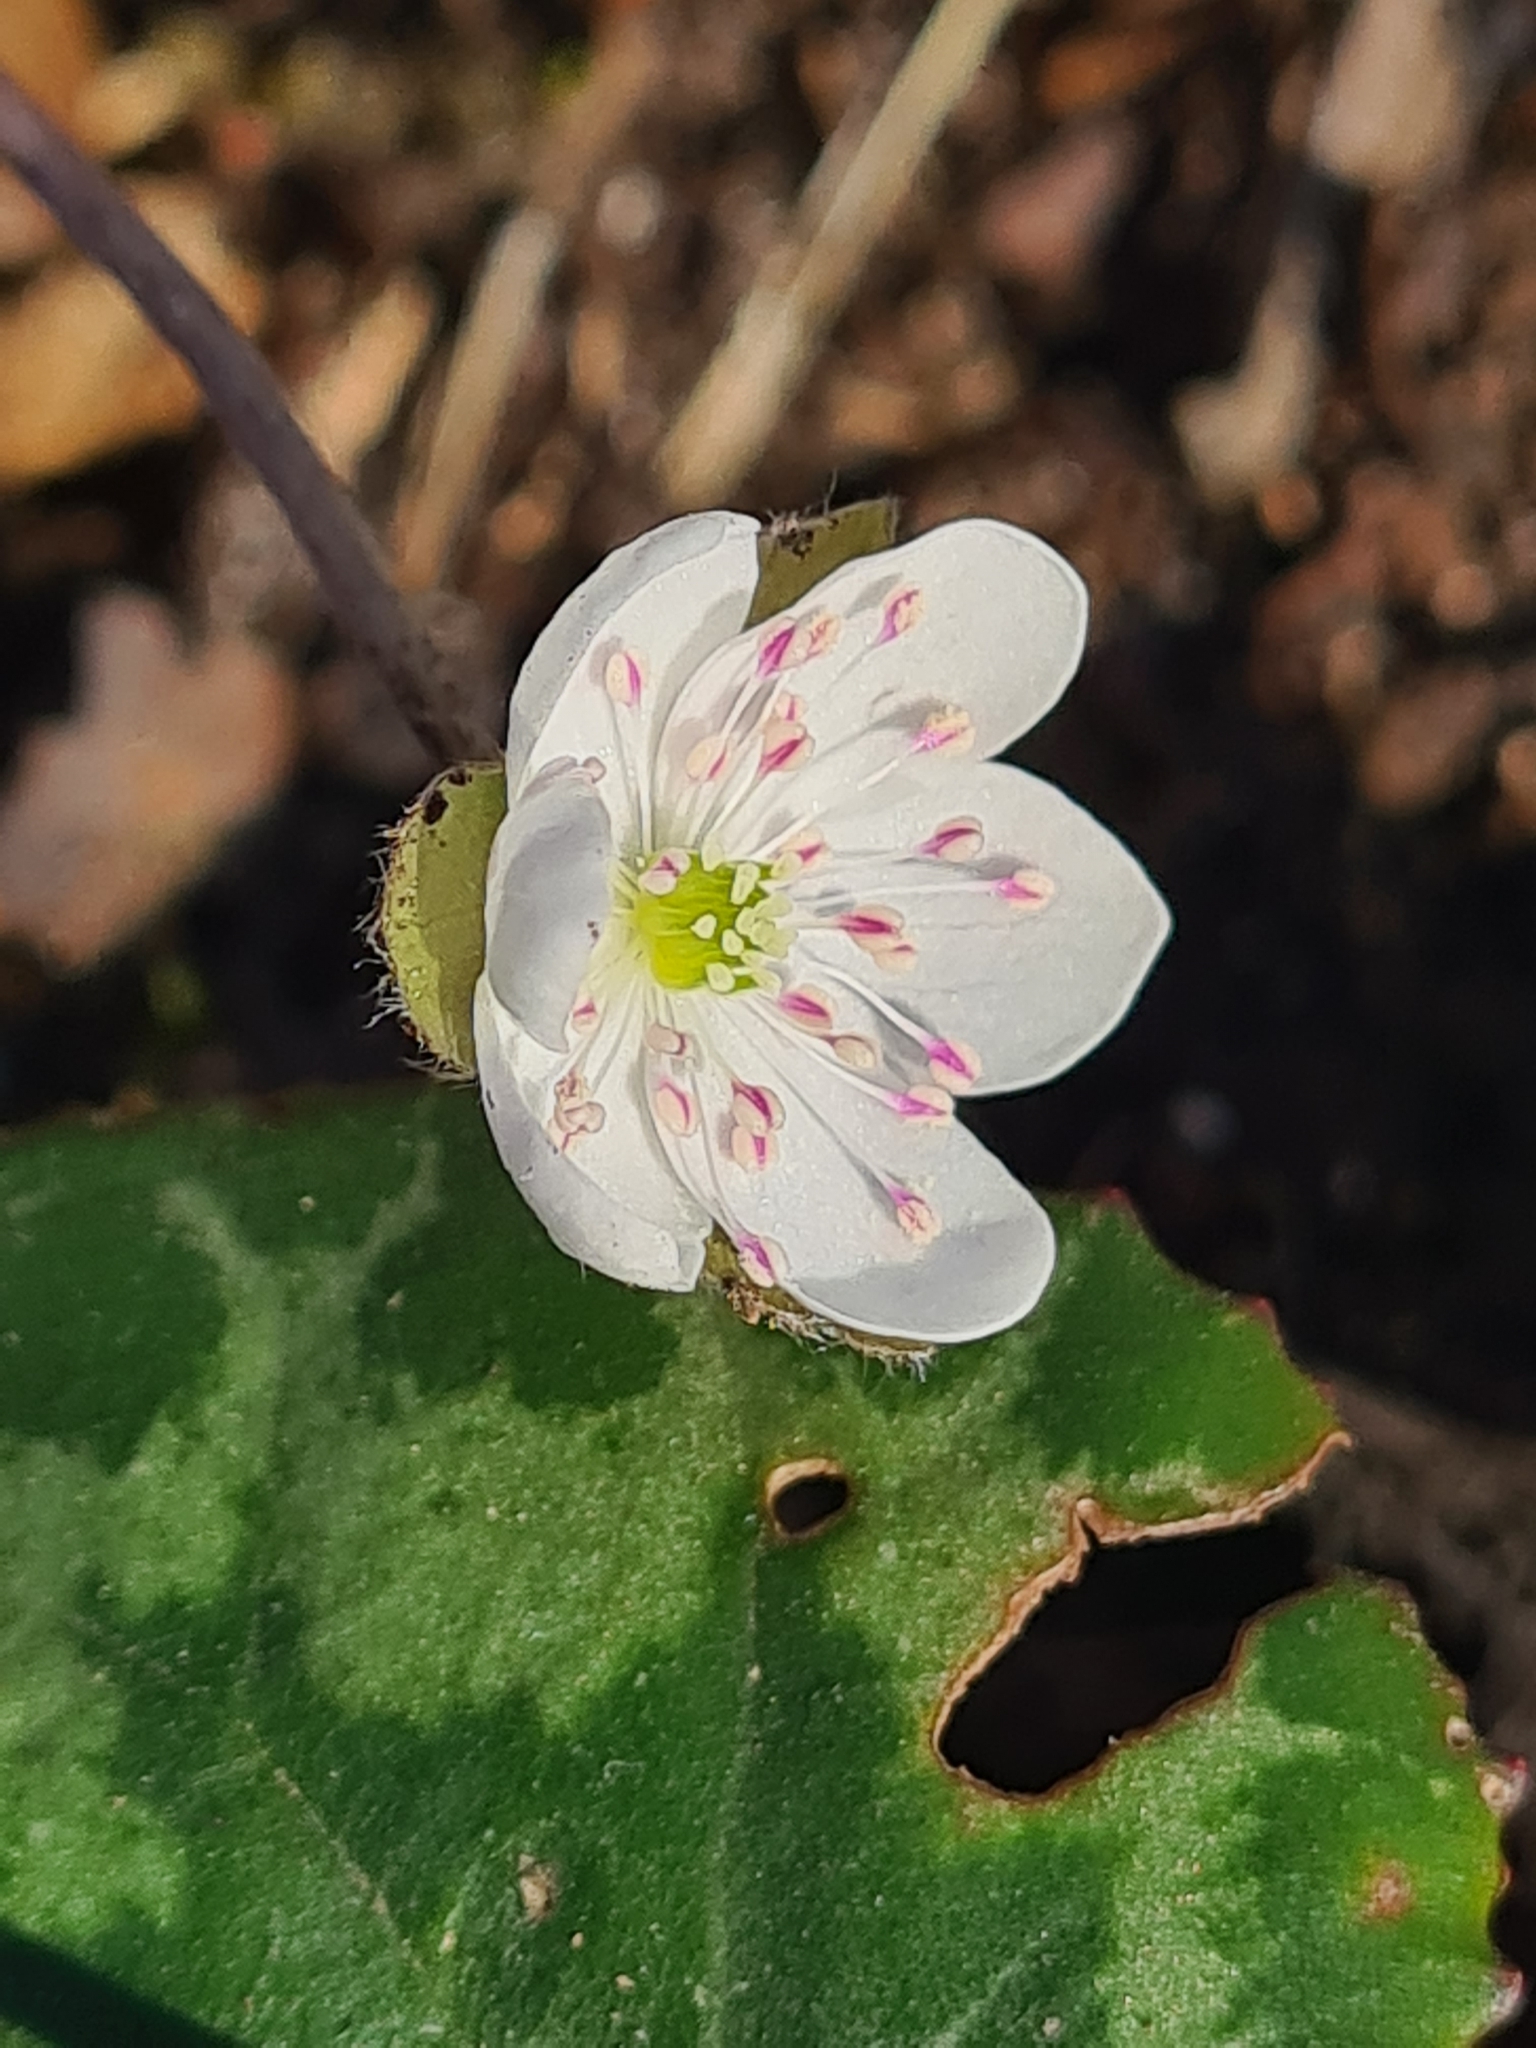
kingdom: Plantae
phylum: Tracheophyta
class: Magnoliopsida
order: Ranunculales
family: Ranunculaceae
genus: Hepatica
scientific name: Hepatica nobilis
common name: Liverleaf
